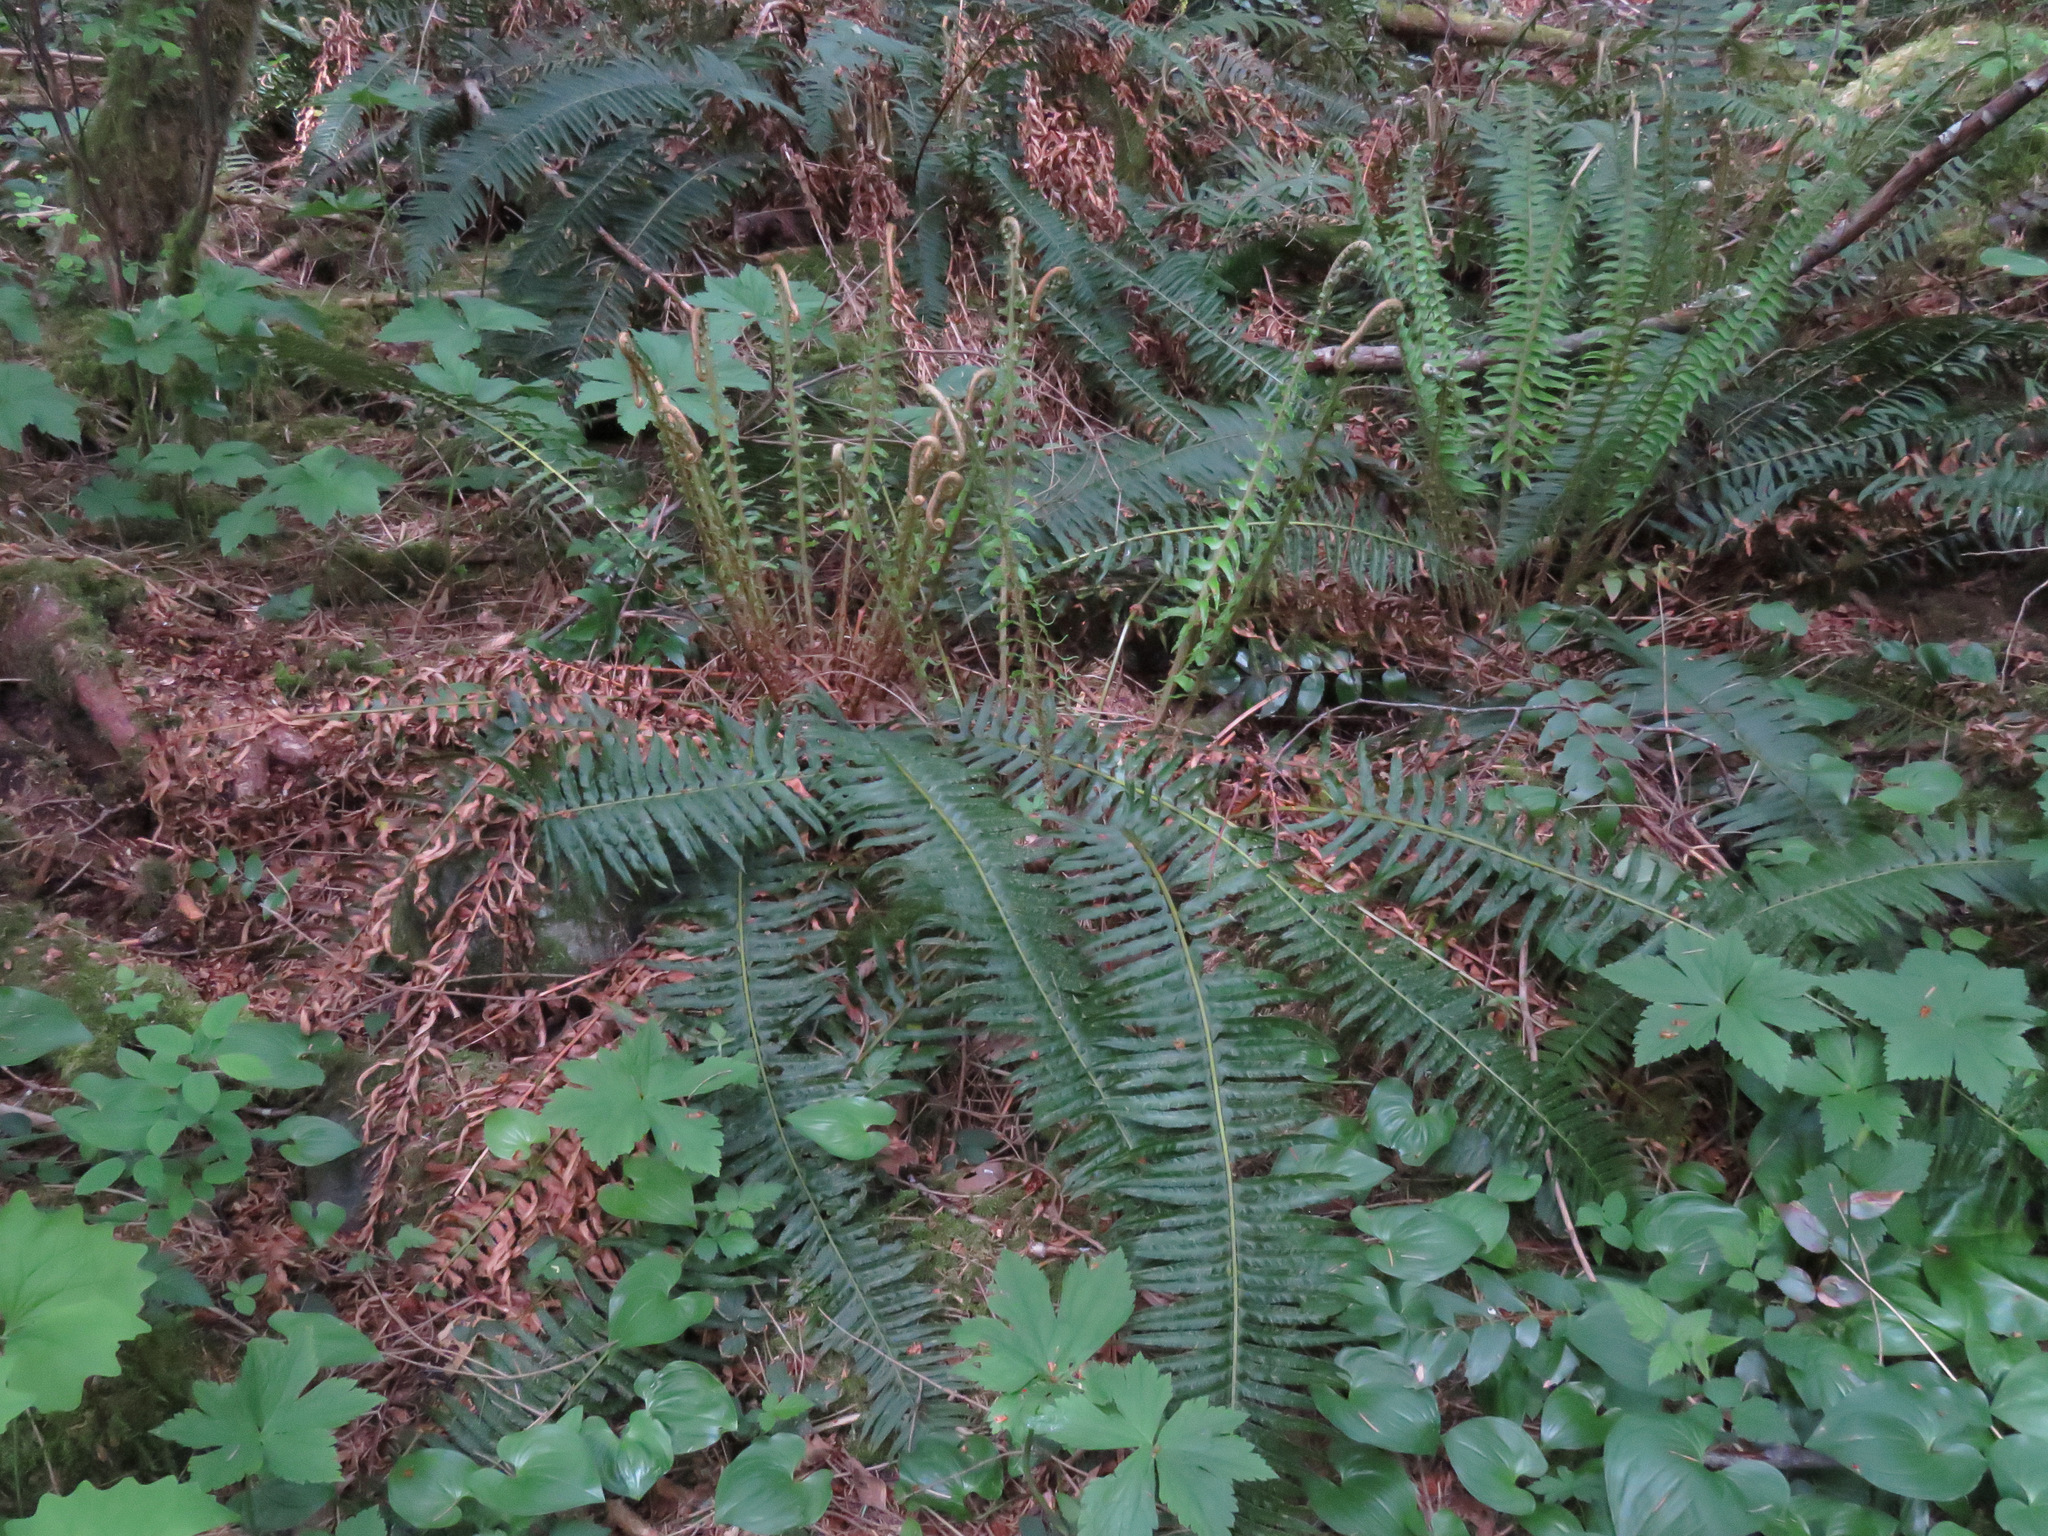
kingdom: Plantae
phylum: Tracheophyta
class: Polypodiopsida
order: Polypodiales
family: Dryopteridaceae
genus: Polystichum
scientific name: Polystichum munitum
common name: Western sword-fern
